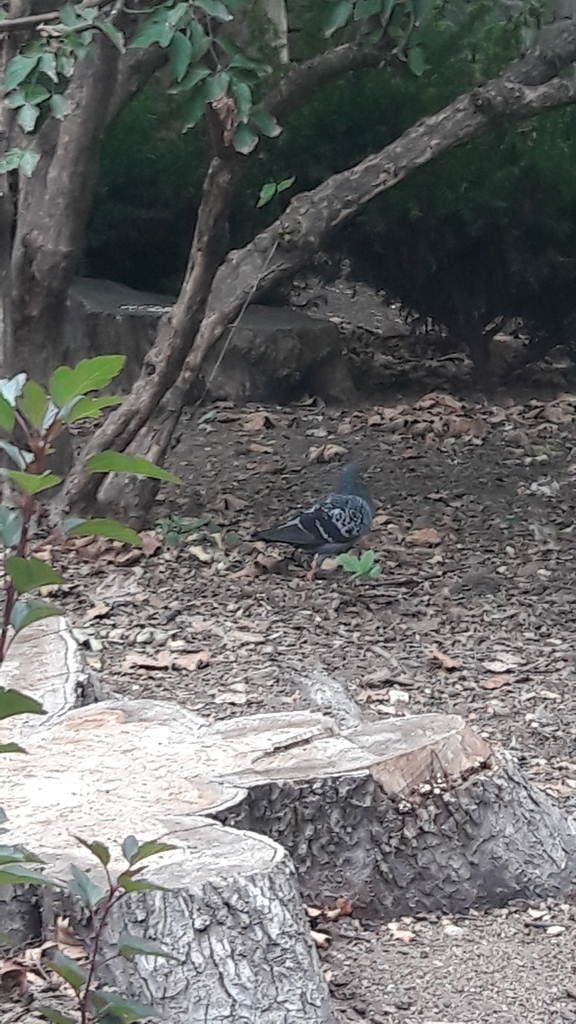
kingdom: Animalia
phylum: Chordata
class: Aves
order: Columbiformes
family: Columbidae
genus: Columba
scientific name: Columba livia
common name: Rock pigeon
